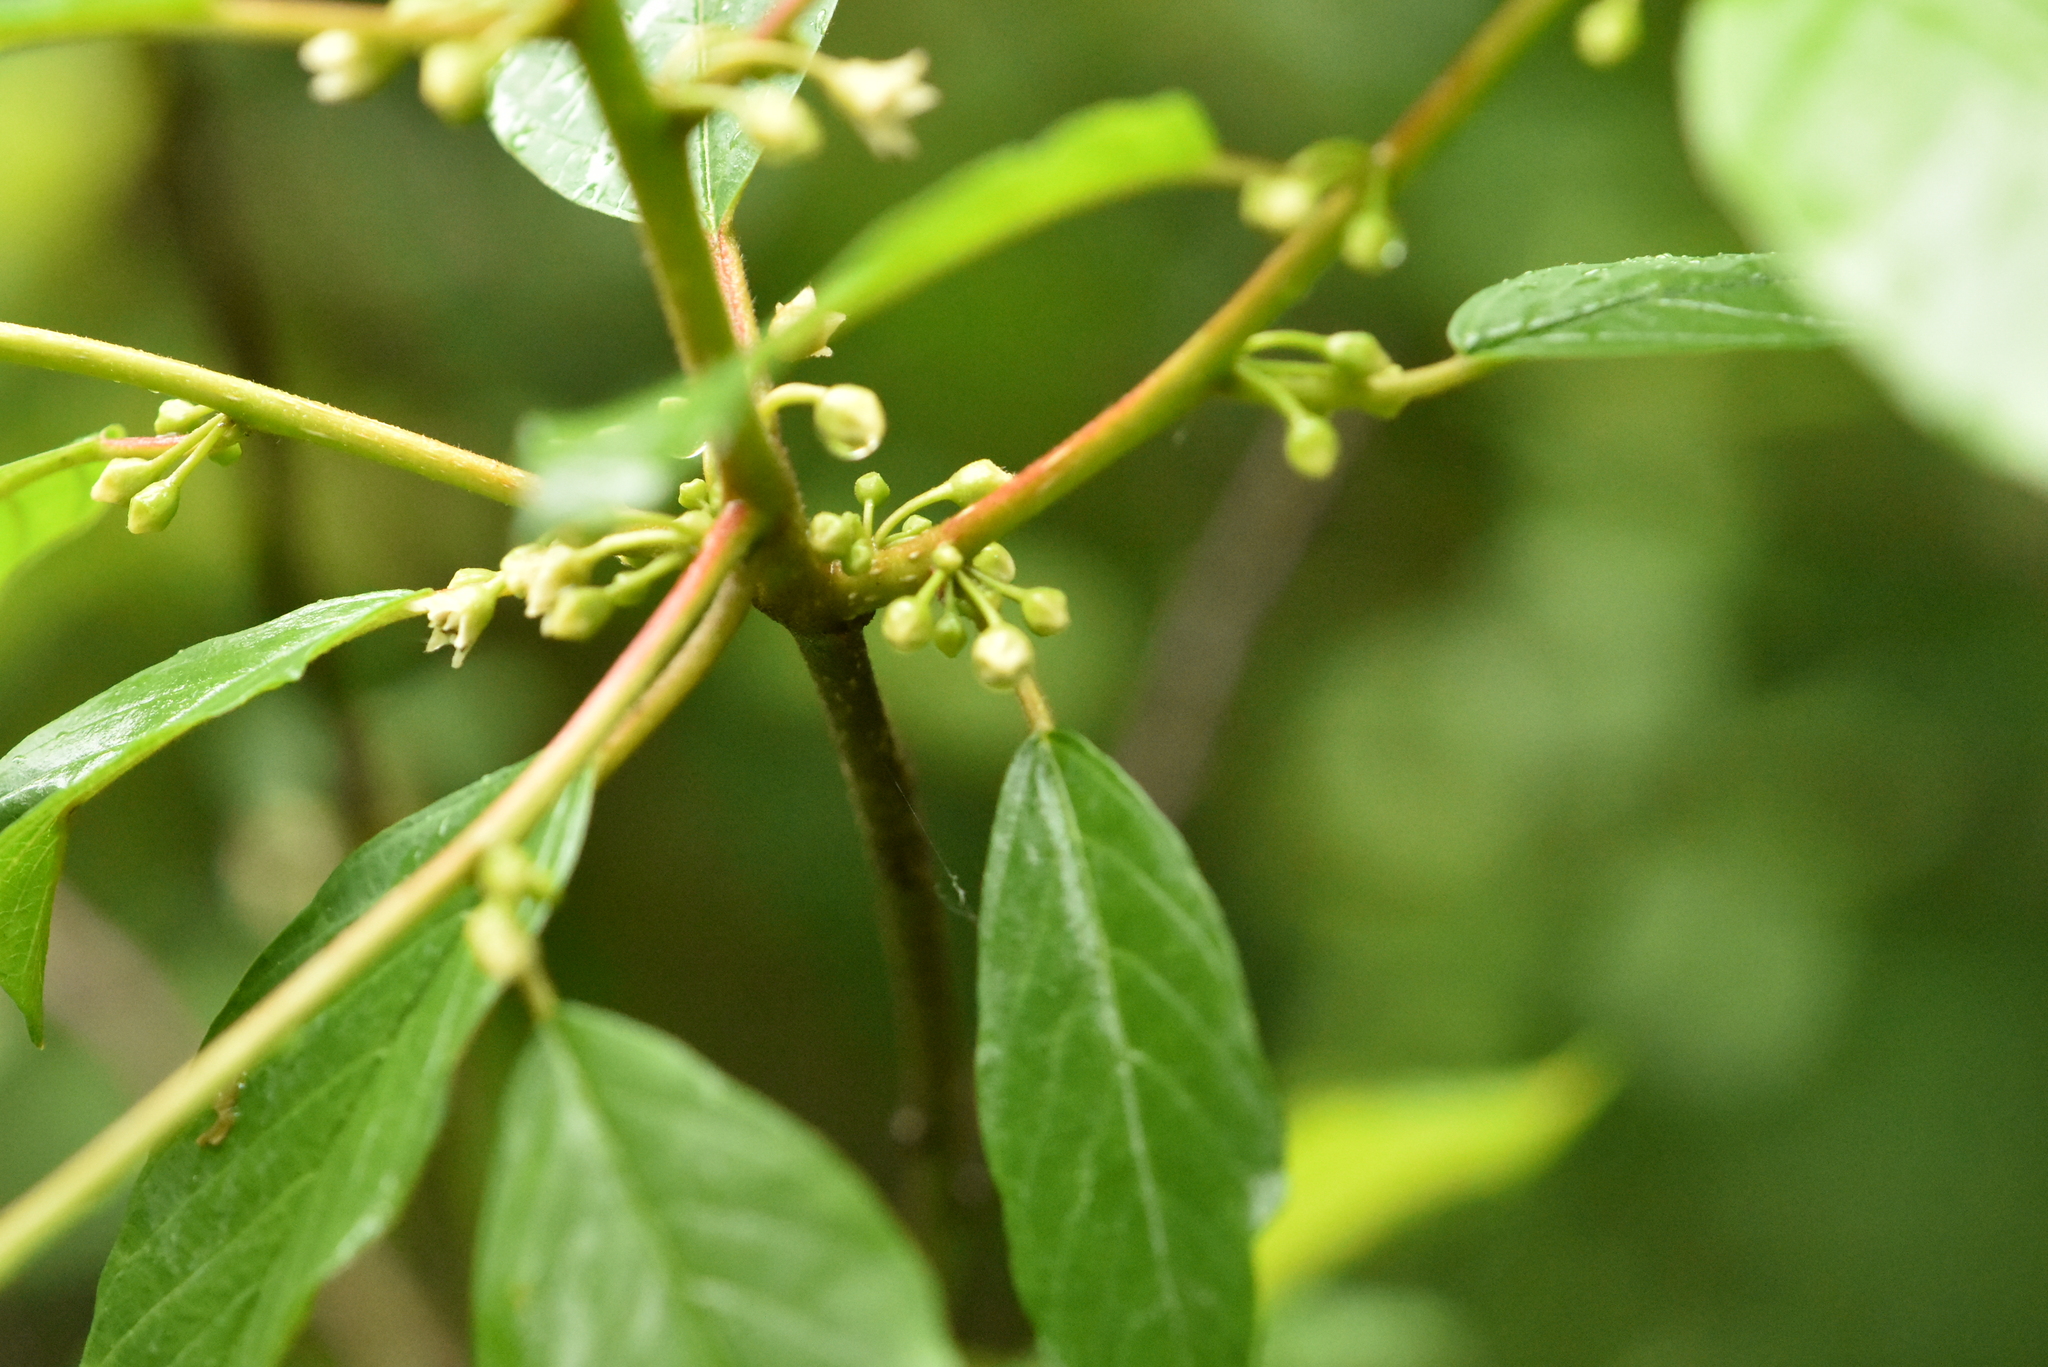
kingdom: Plantae
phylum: Tracheophyta
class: Magnoliopsida
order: Rosales
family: Rhamnaceae
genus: Frangula
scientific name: Frangula alnus
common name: Alder buckthorn
